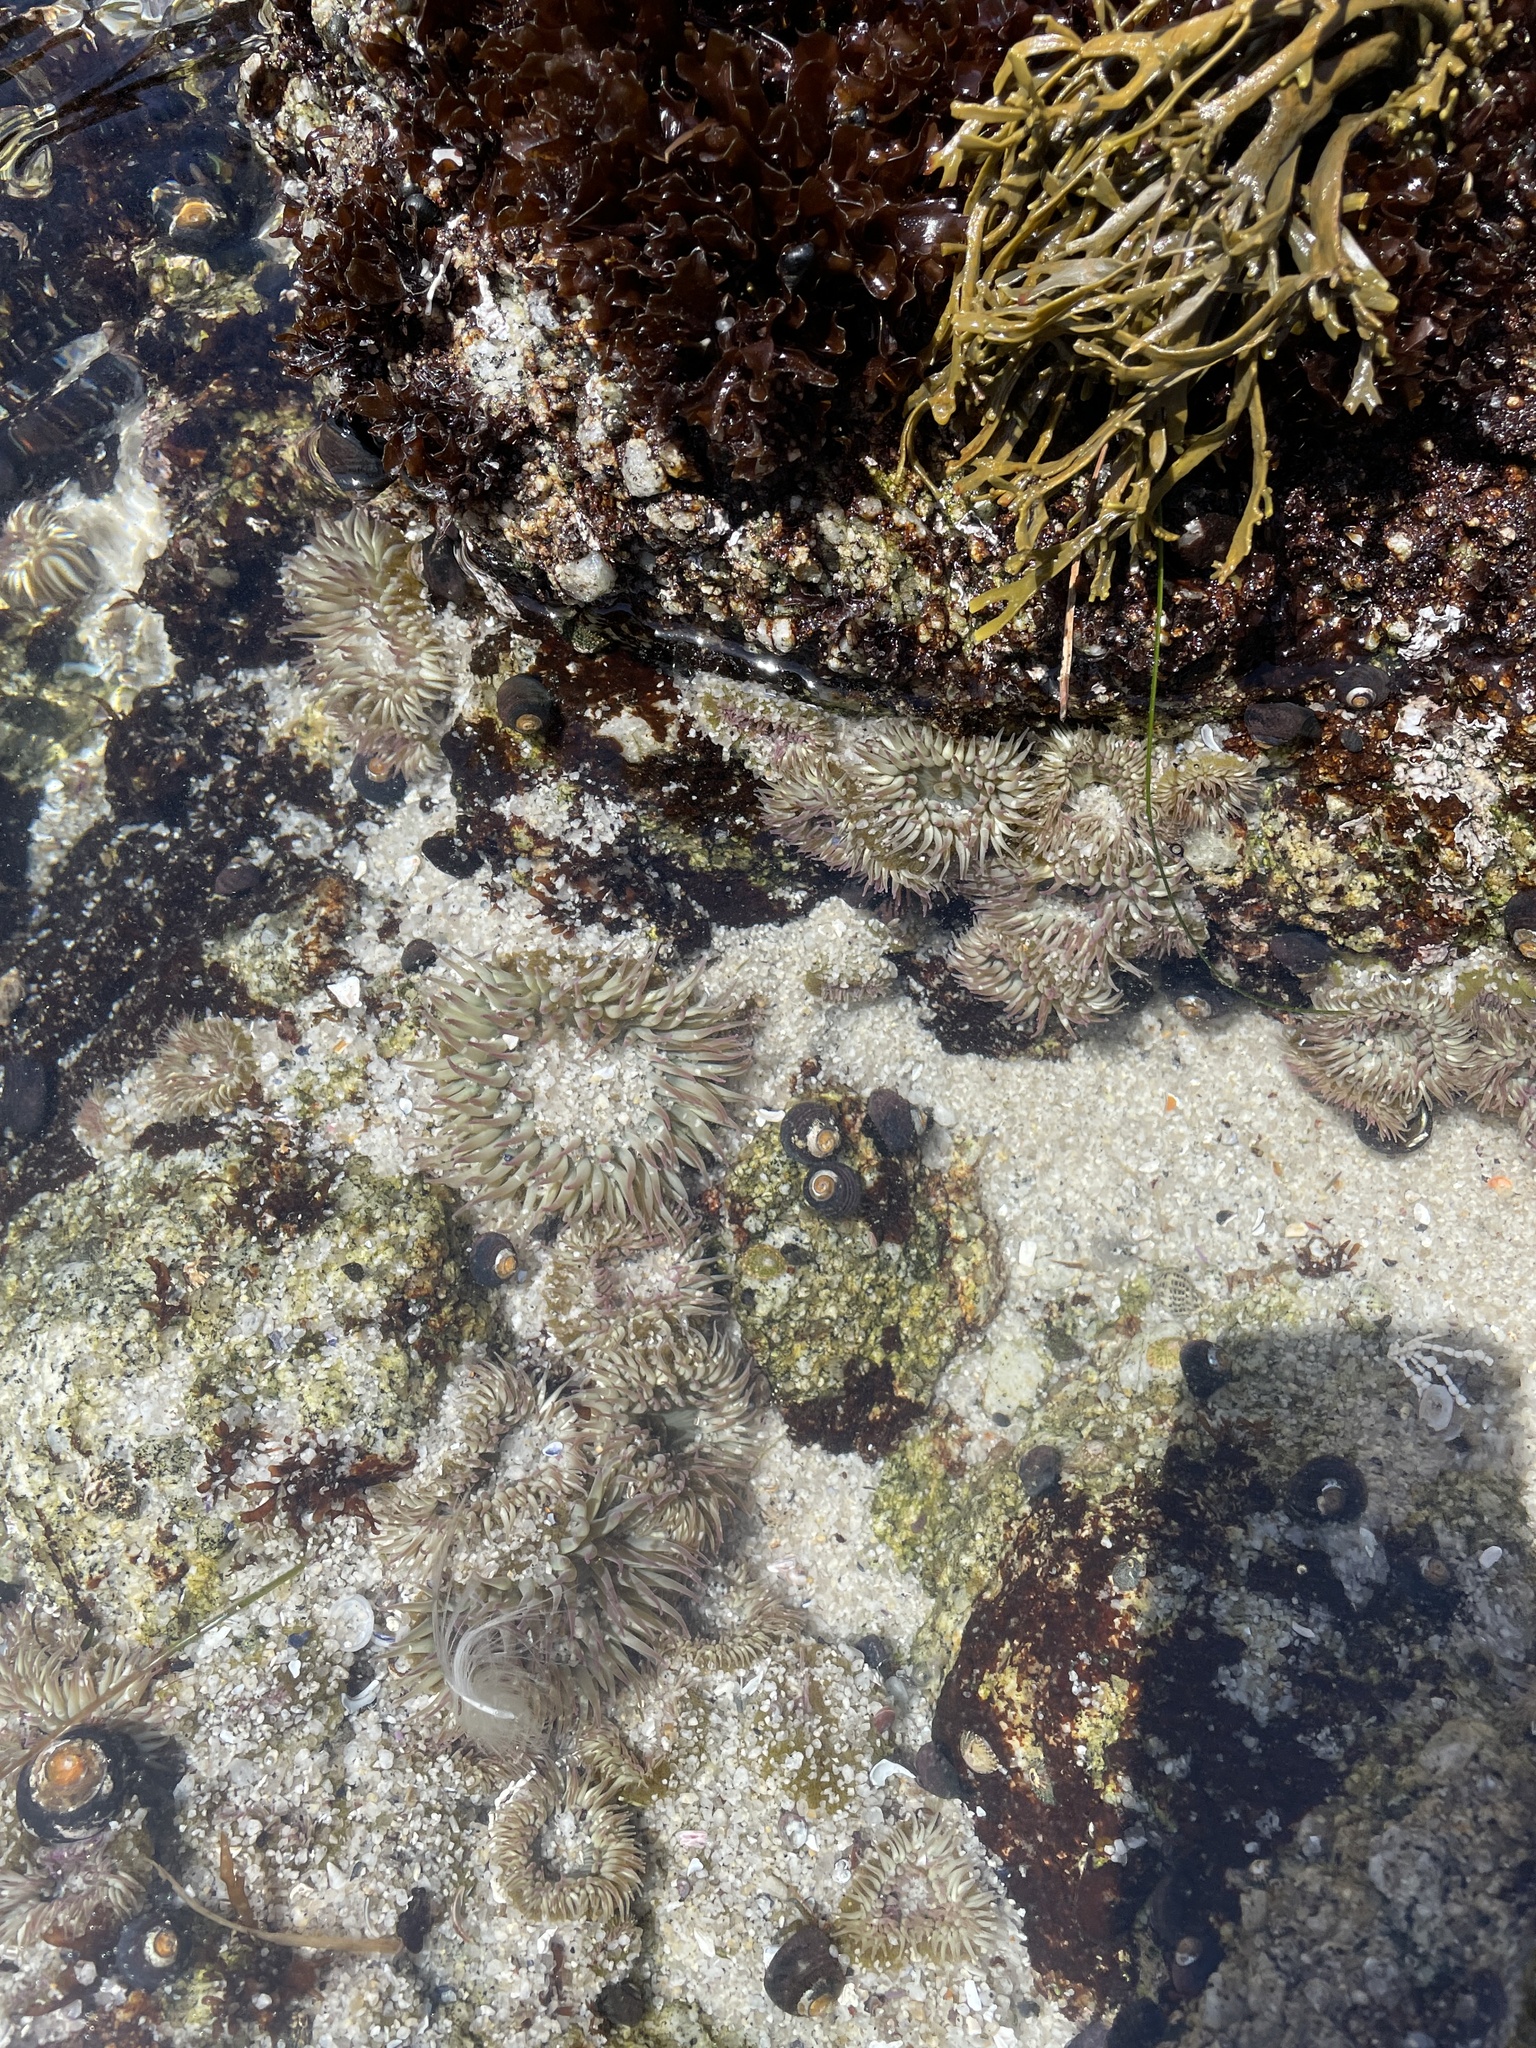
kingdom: Animalia
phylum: Cnidaria
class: Anthozoa
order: Actiniaria
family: Actiniidae
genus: Anthopleura
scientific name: Anthopleura elegantissima
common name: Clonal anemone
